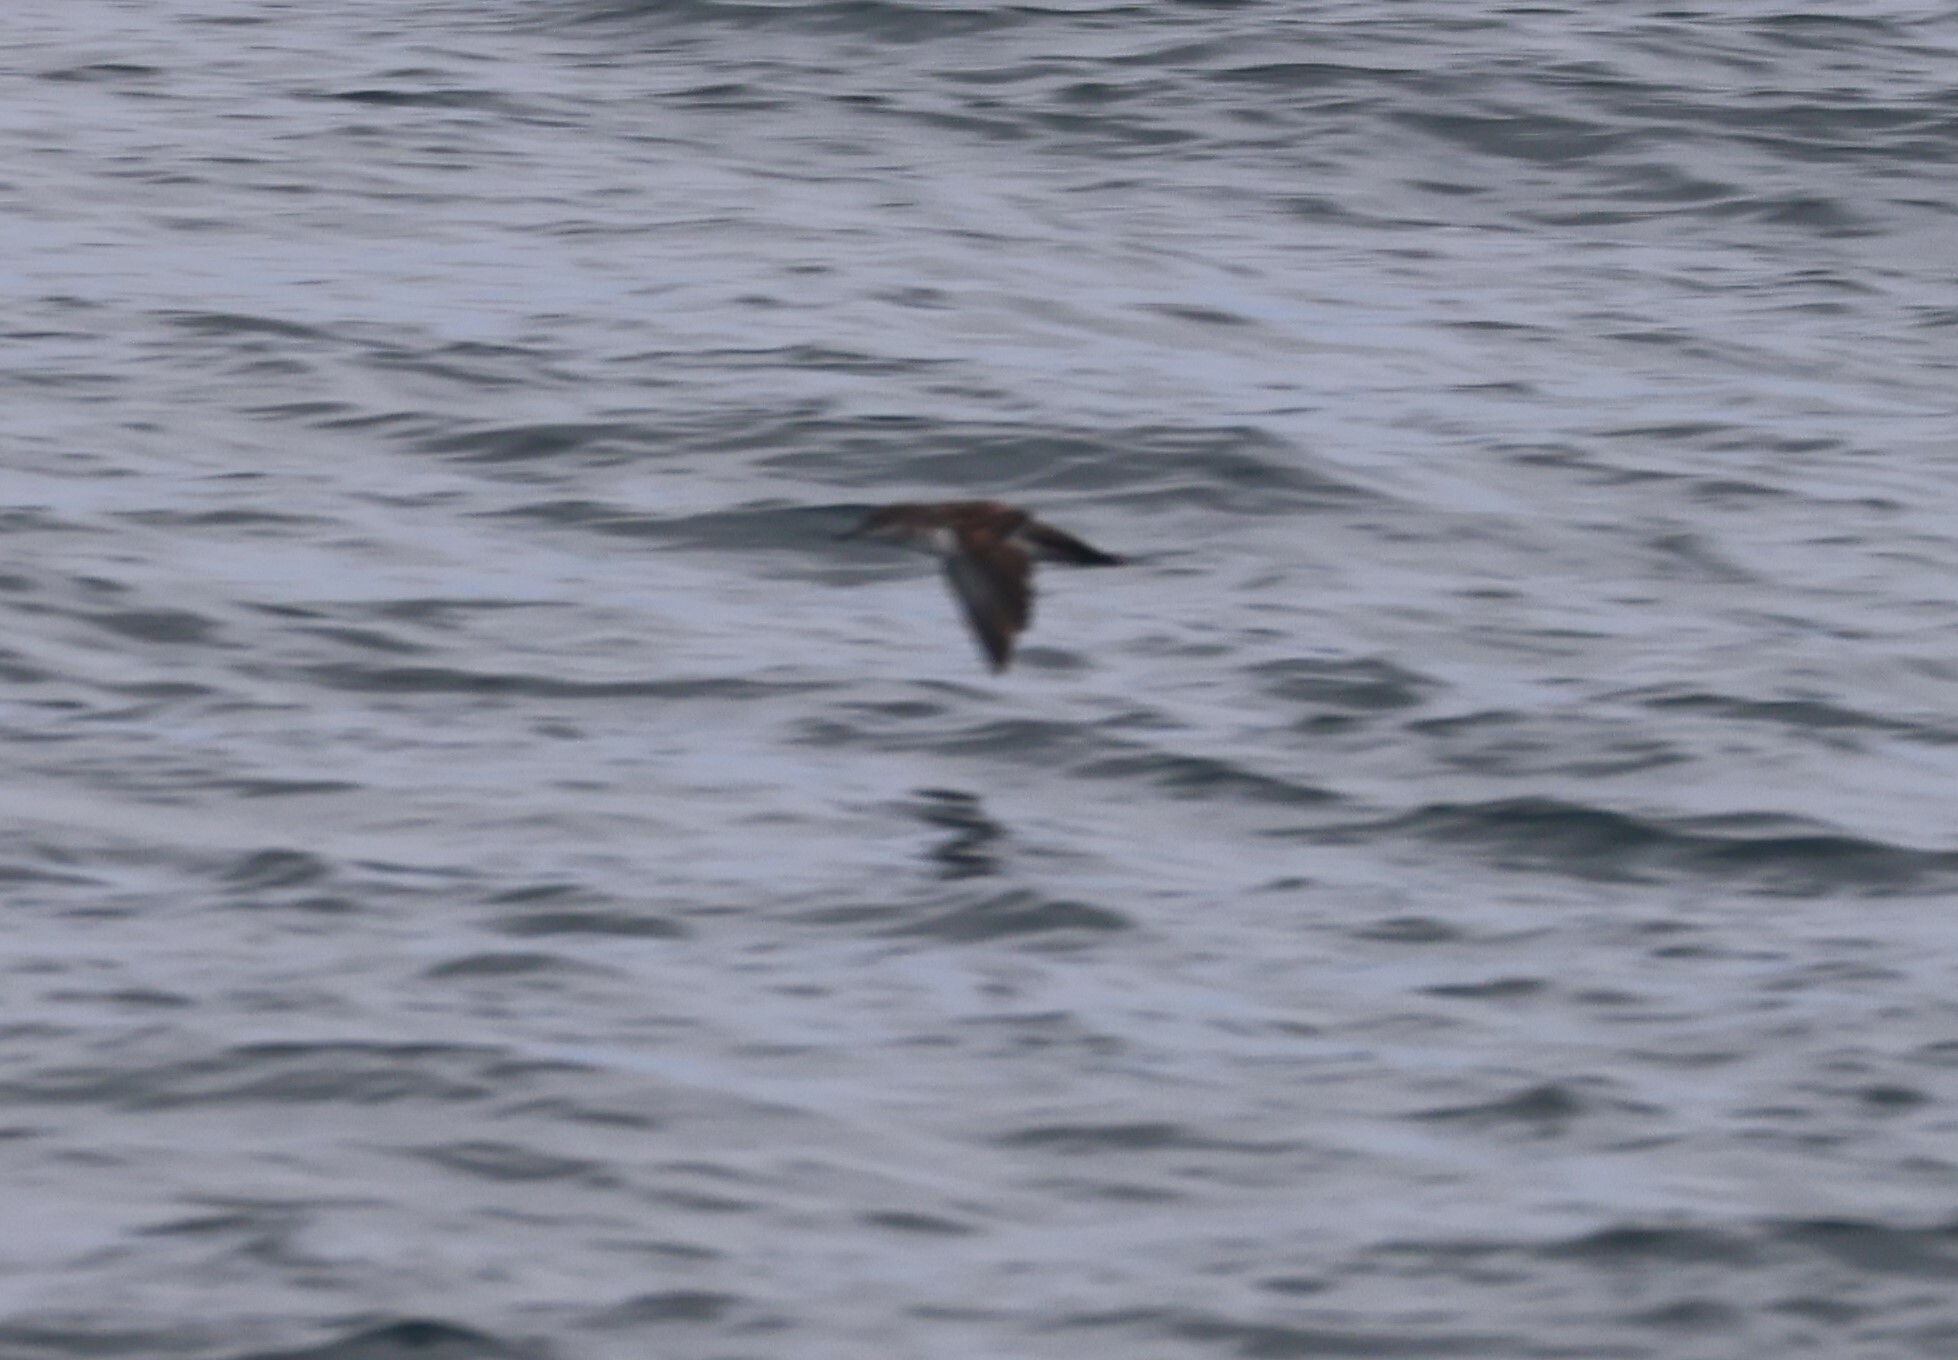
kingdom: Animalia
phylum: Chordata
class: Aves
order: Procellariiformes
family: Procellariidae
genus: Puffinus
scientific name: Puffinus opisthomelas
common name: Black-vented shearwater
